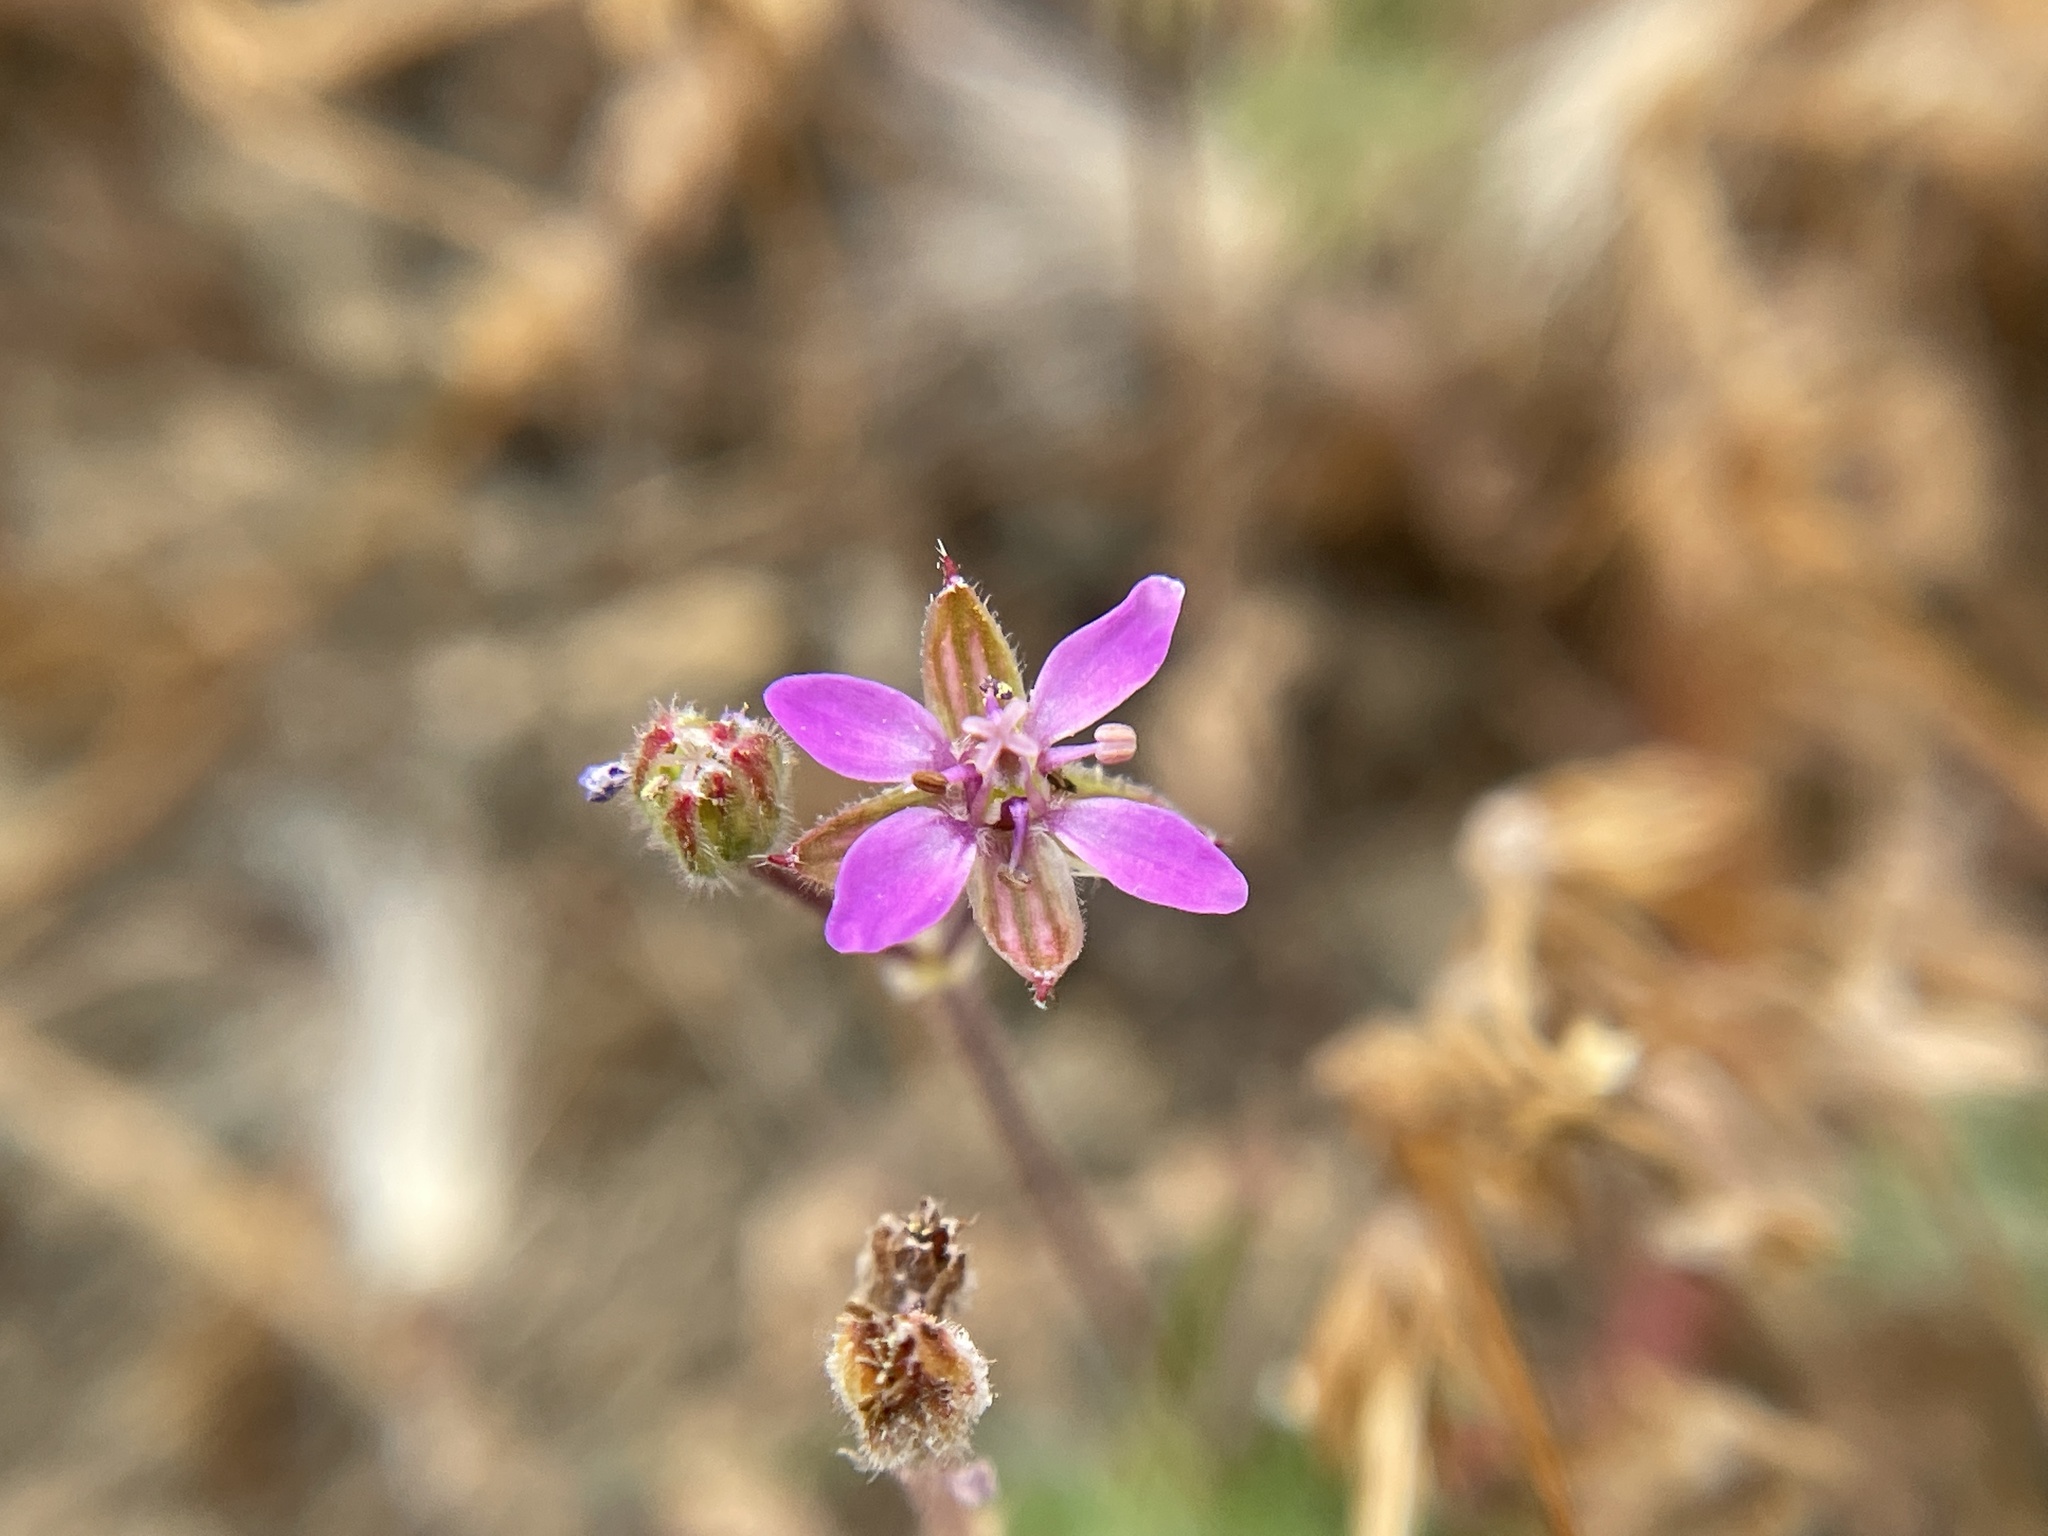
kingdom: Plantae
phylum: Tracheophyta
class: Magnoliopsida
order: Geraniales
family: Geraniaceae
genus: Erodium
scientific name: Erodium cicutarium
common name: Common stork's-bill
